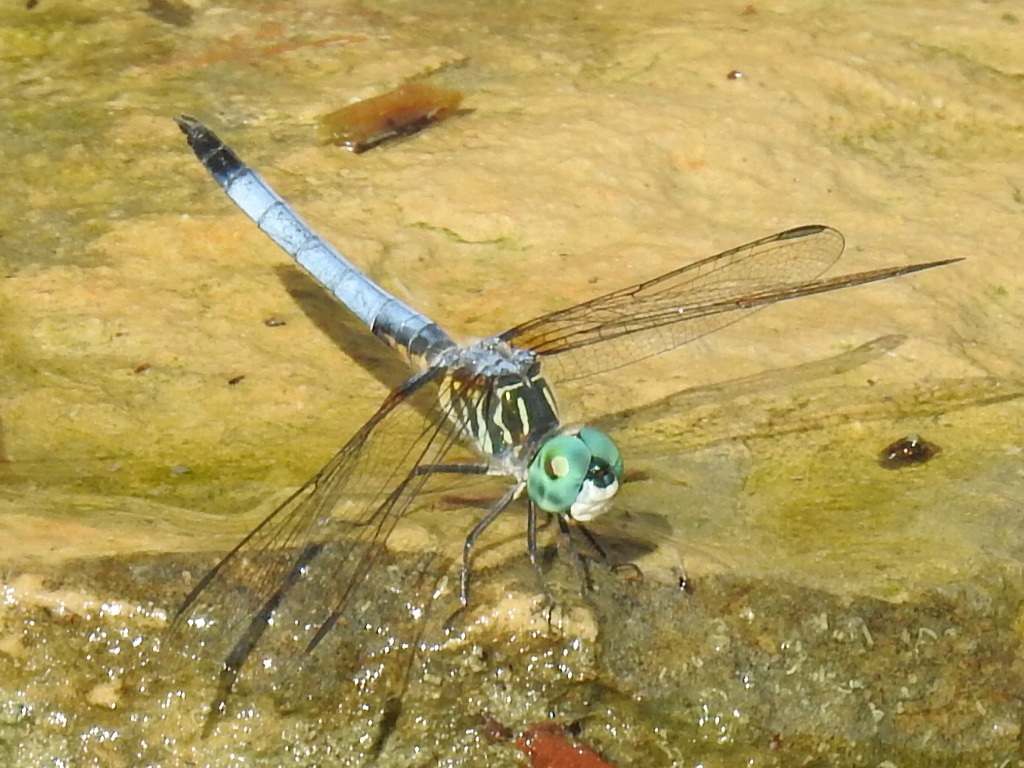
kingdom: Animalia
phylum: Arthropoda
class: Insecta
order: Odonata
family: Libellulidae
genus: Pachydiplax
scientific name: Pachydiplax longipennis
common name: Blue dasher
